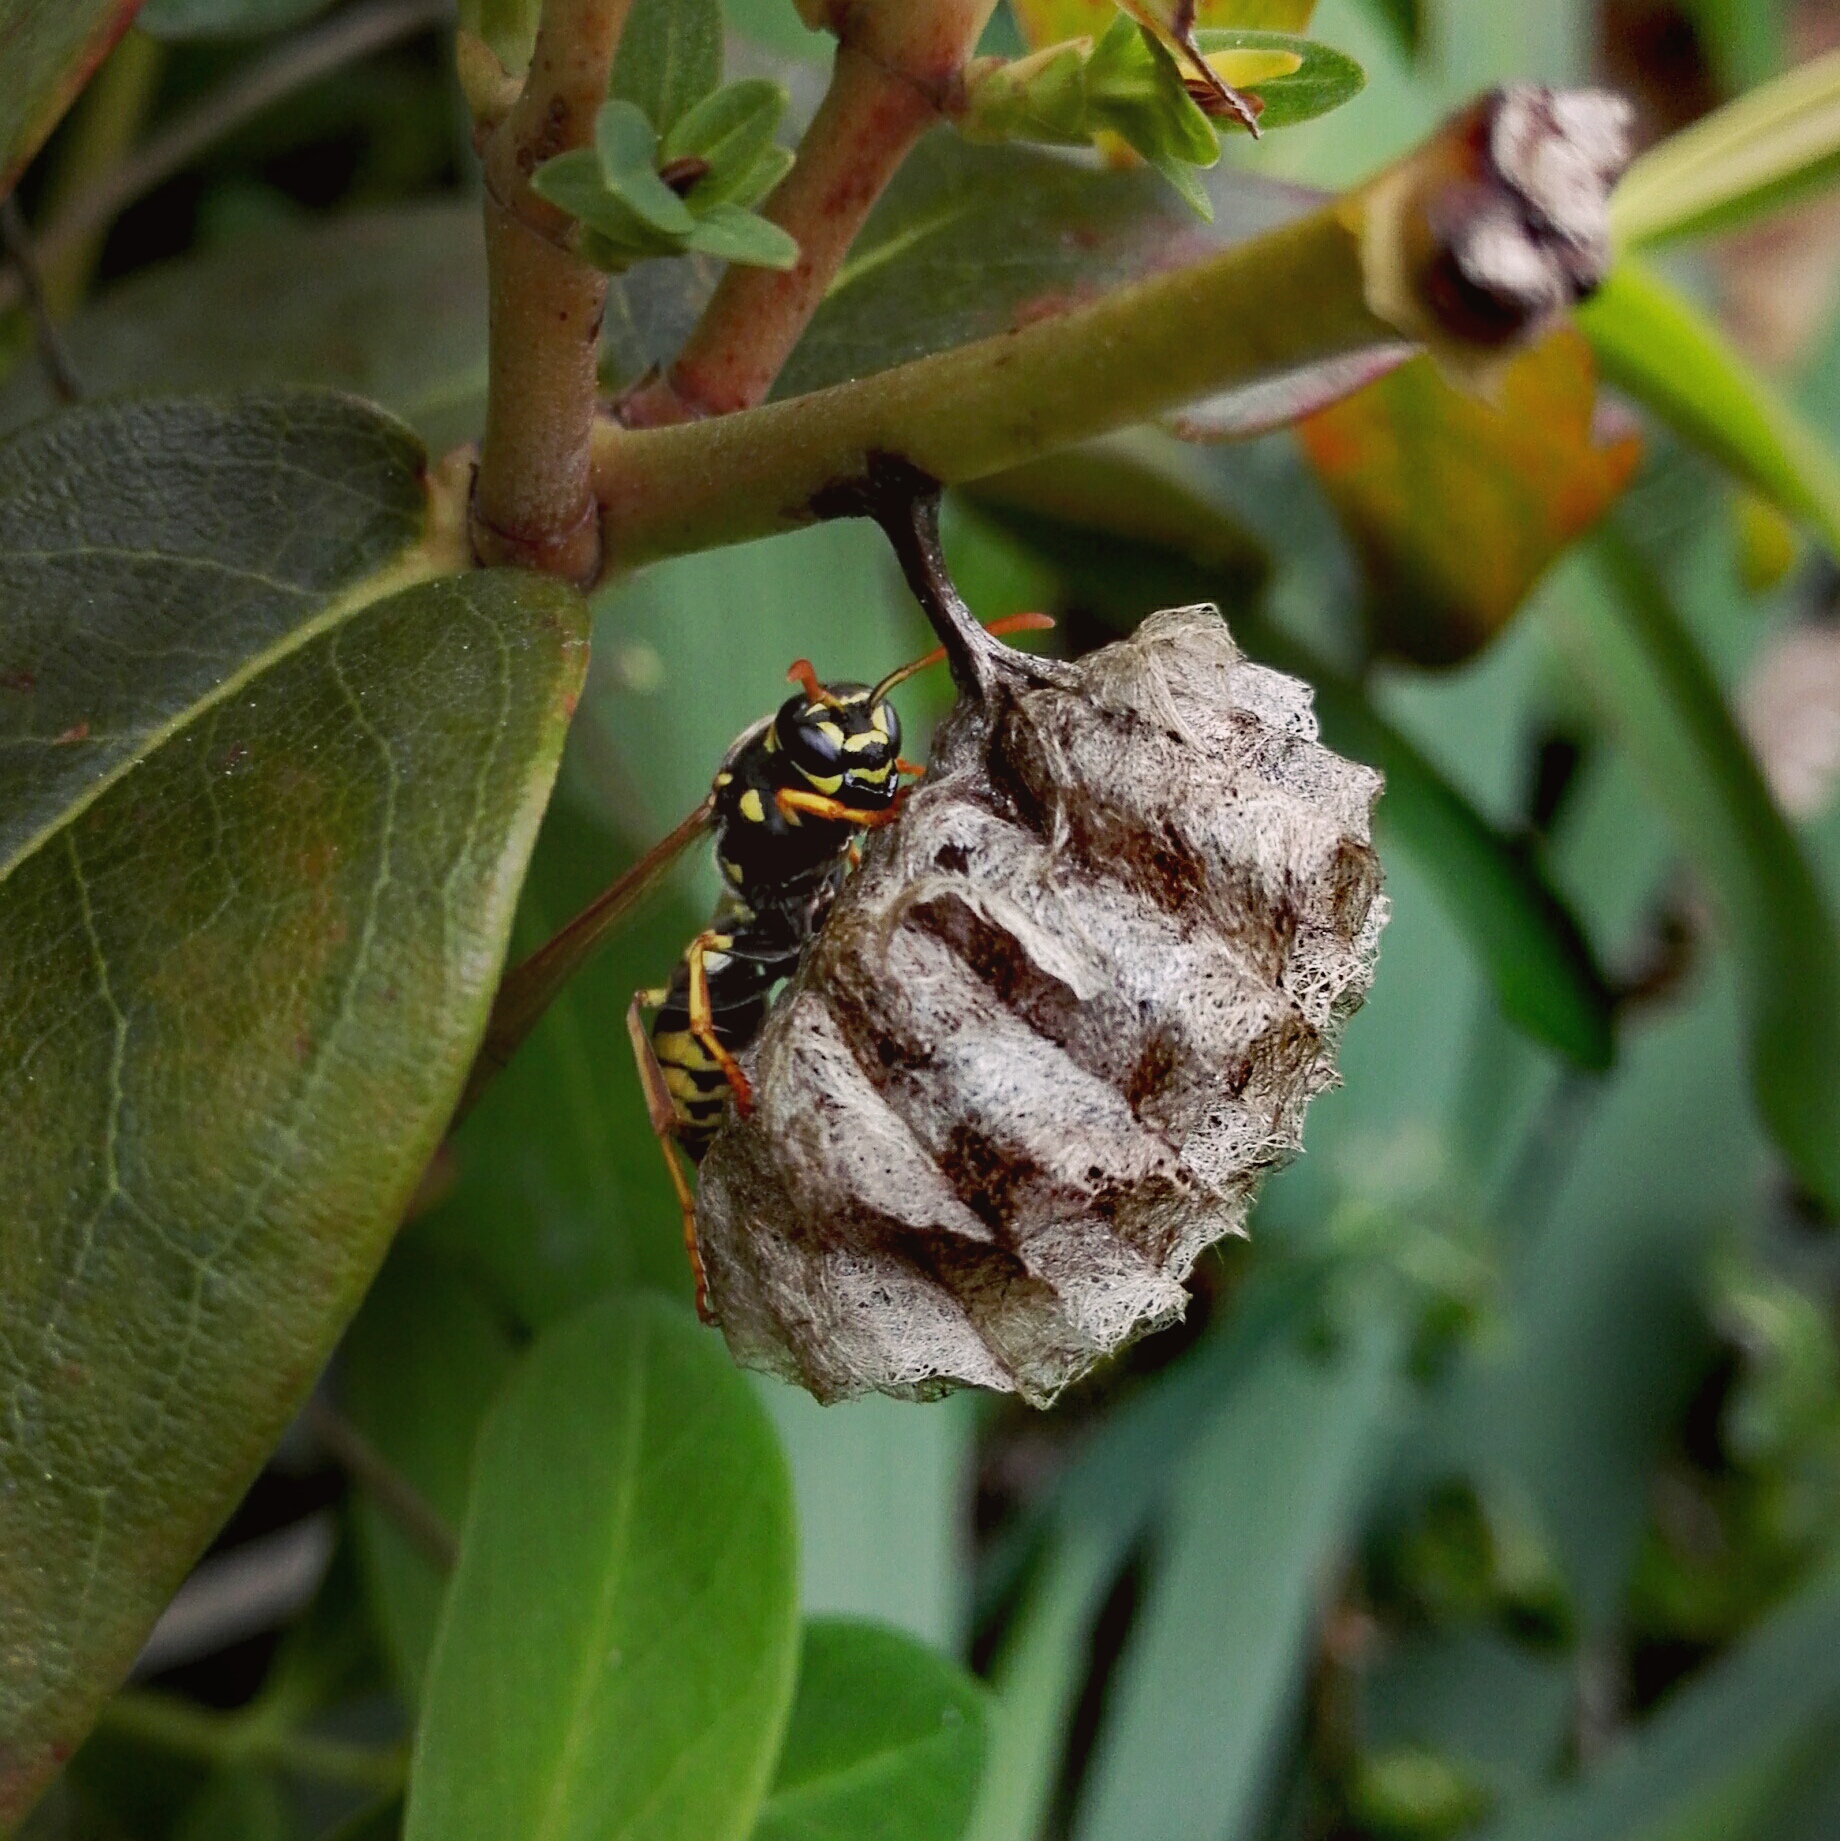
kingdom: Animalia
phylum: Arthropoda
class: Insecta
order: Hymenoptera
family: Eumenidae
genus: Polistes
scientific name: Polistes nimpha
